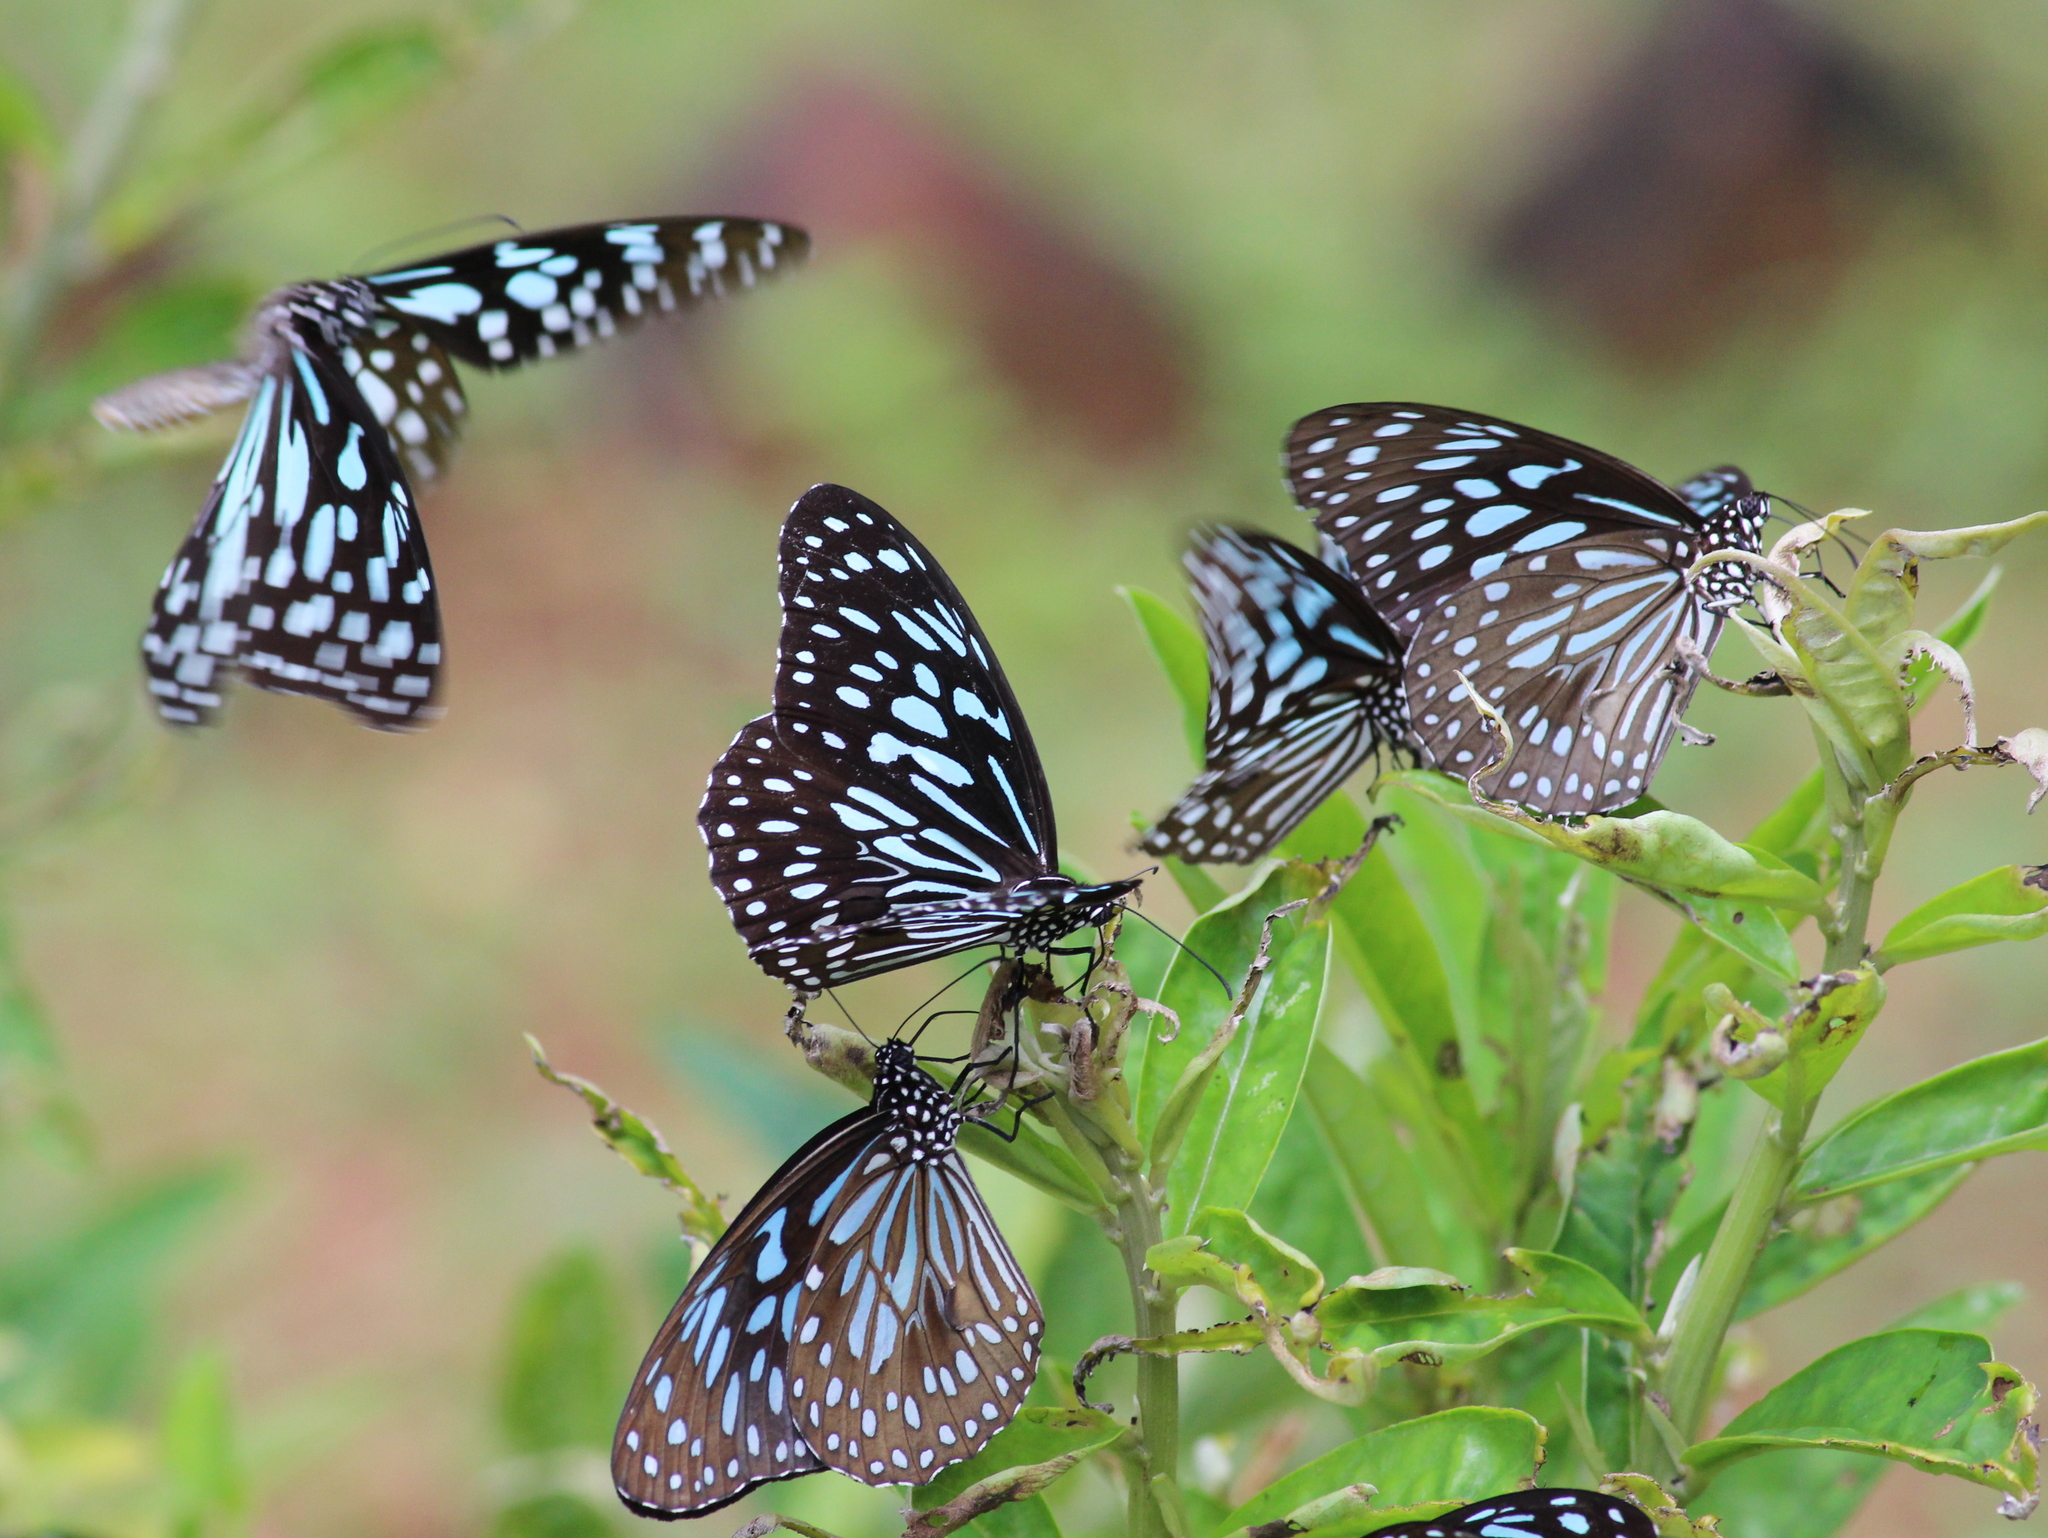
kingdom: Animalia
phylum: Arthropoda
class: Insecta
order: Lepidoptera
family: Nymphalidae
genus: Tirumala
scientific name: Tirumala septentrionis
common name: Dark blue tiger butterfly
